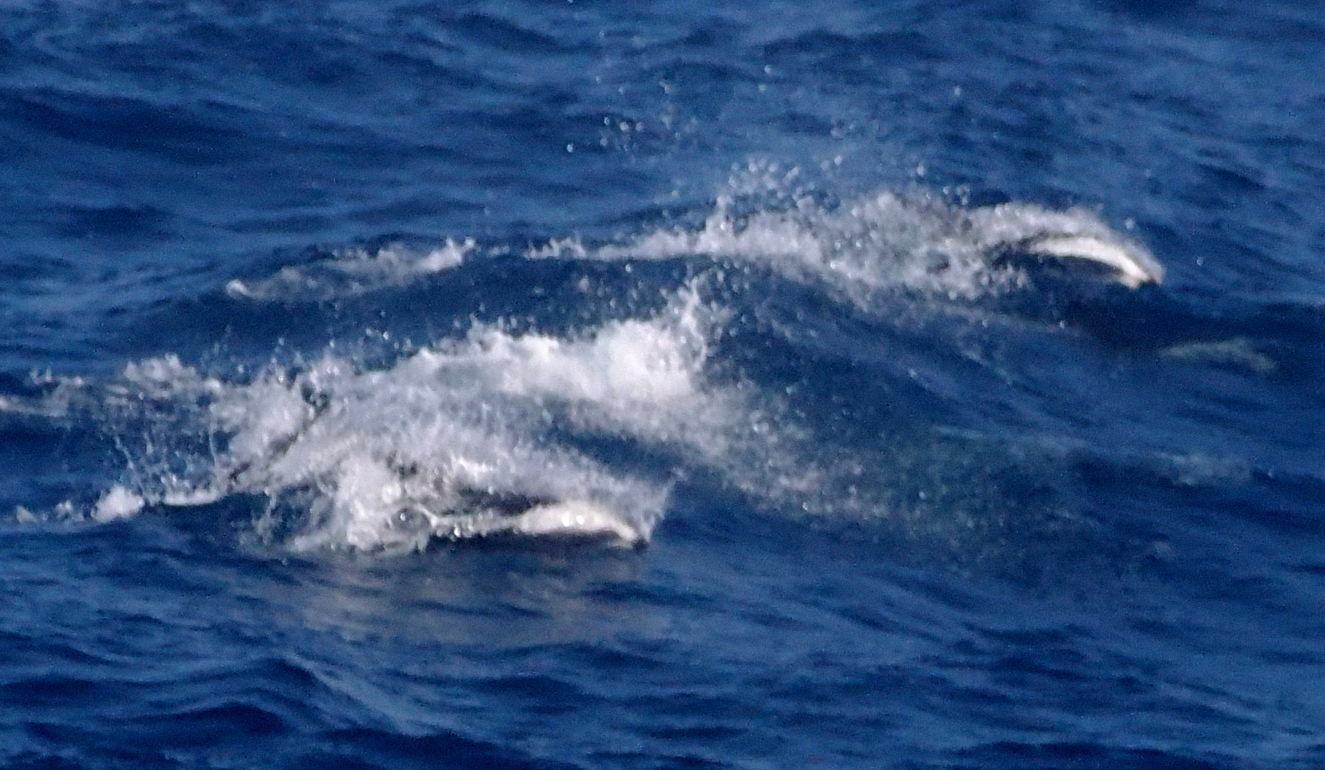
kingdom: Animalia
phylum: Chordata
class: Mammalia
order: Cetacea
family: Delphinidae
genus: Lagenorhynchus
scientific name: Lagenorhynchus cruciger
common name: Hourglass dolphin
